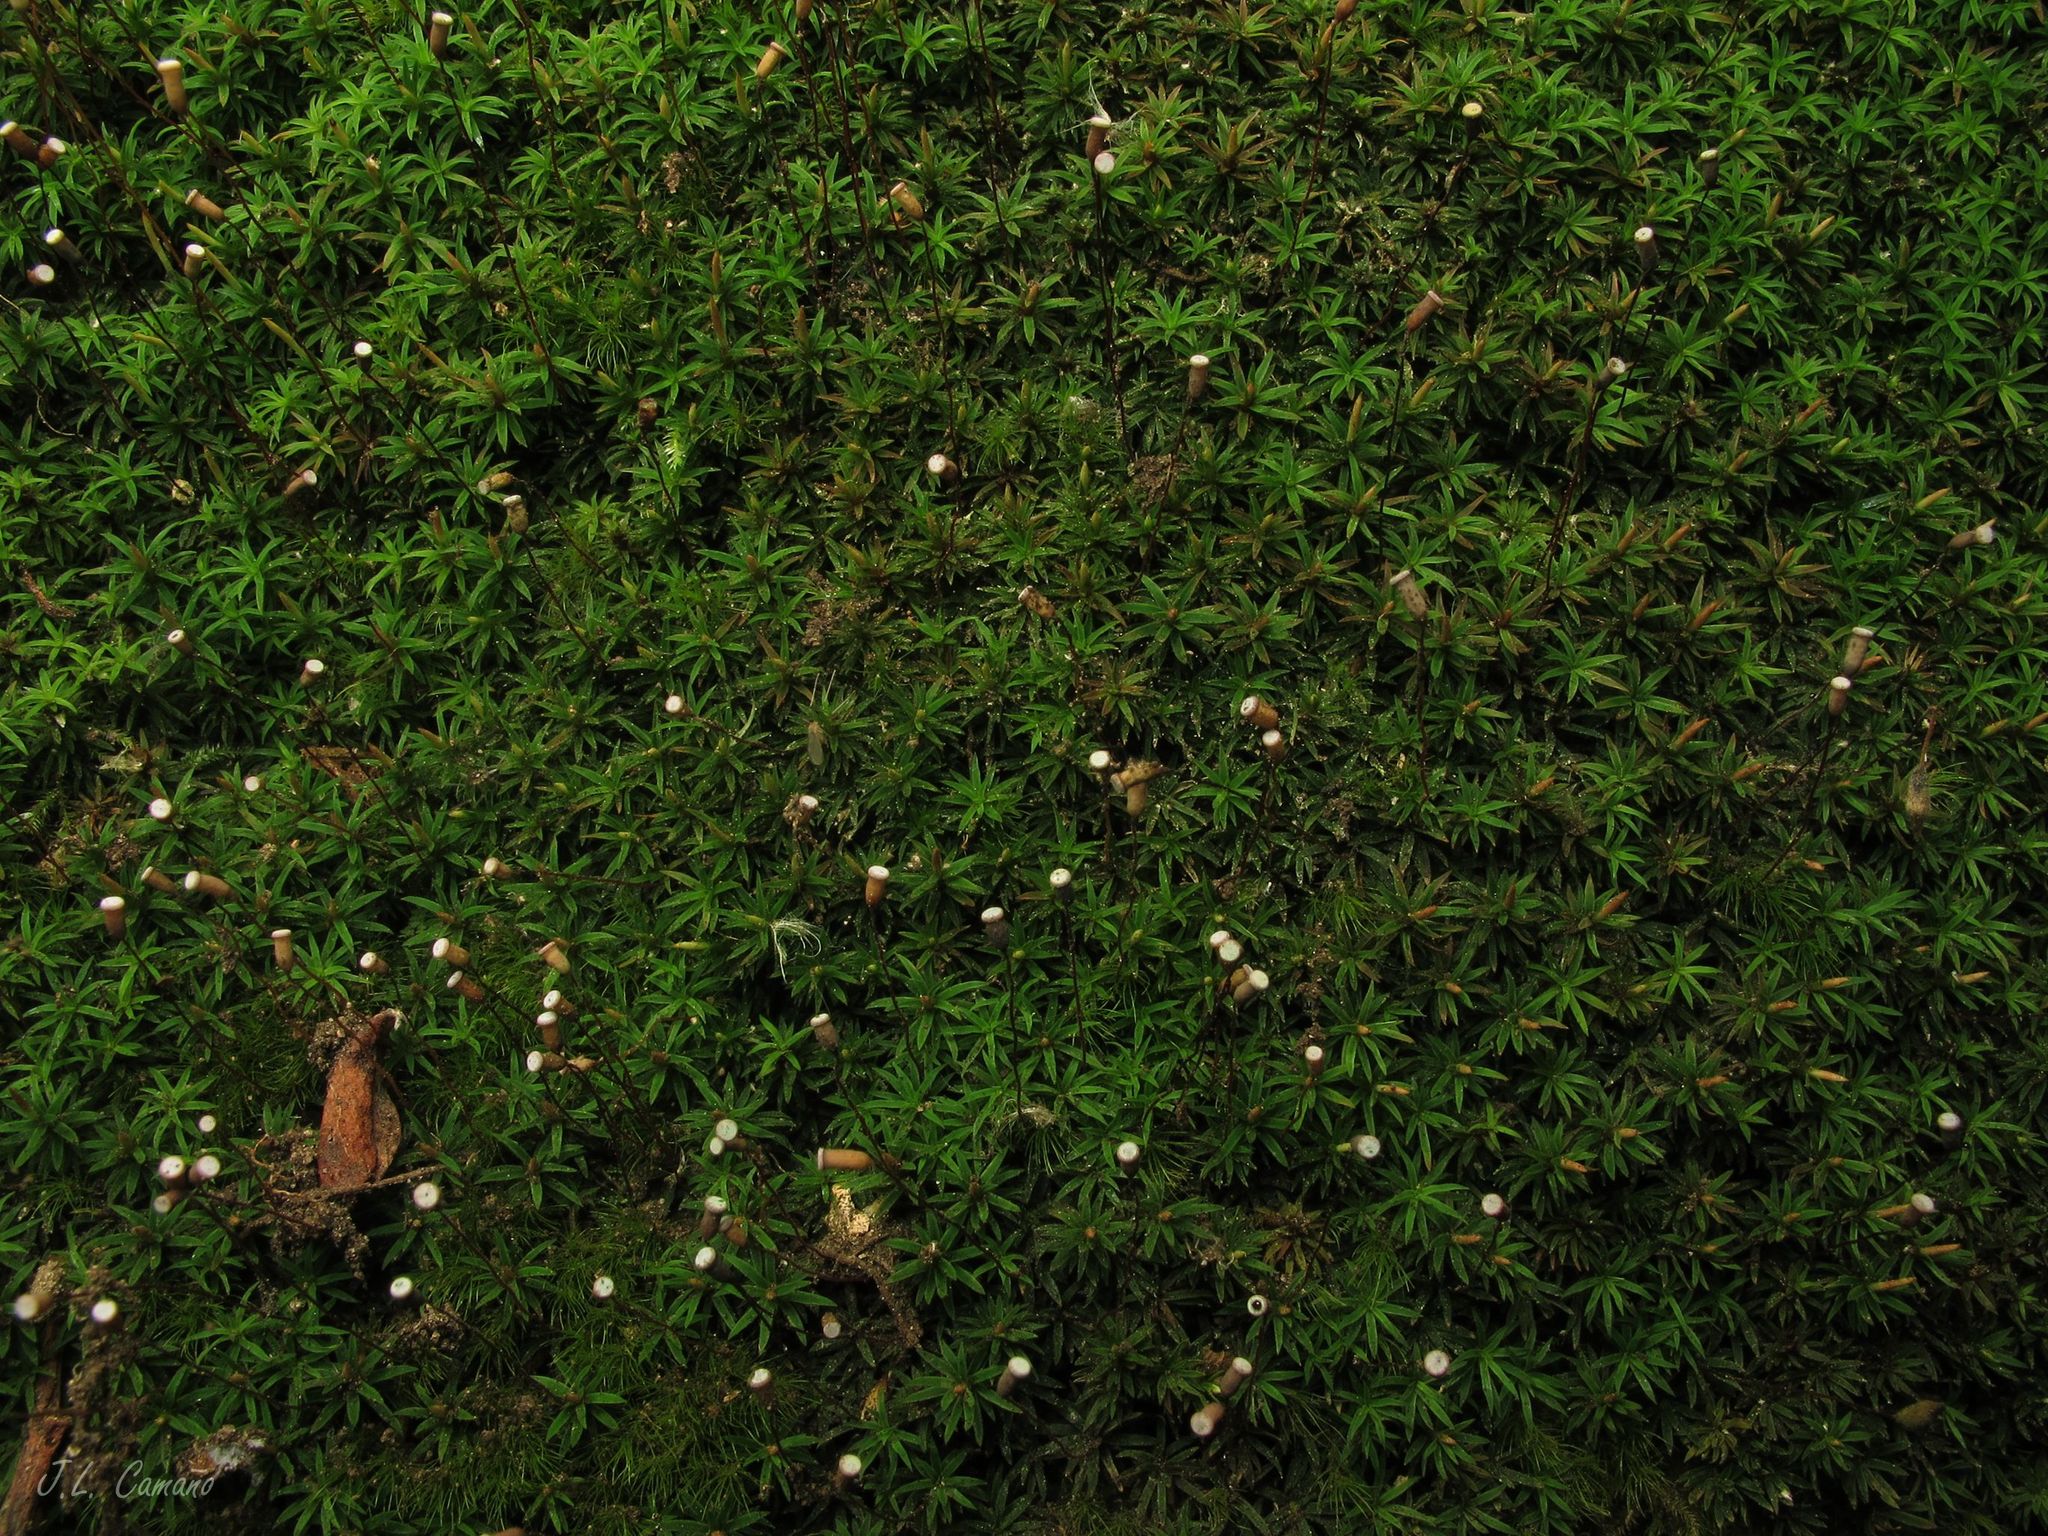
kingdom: Plantae
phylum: Bryophyta
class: Polytrichopsida
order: Polytrichales
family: Polytrichaceae
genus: Pogonatum
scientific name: Pogonatum aloides
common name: Aloe haircap
